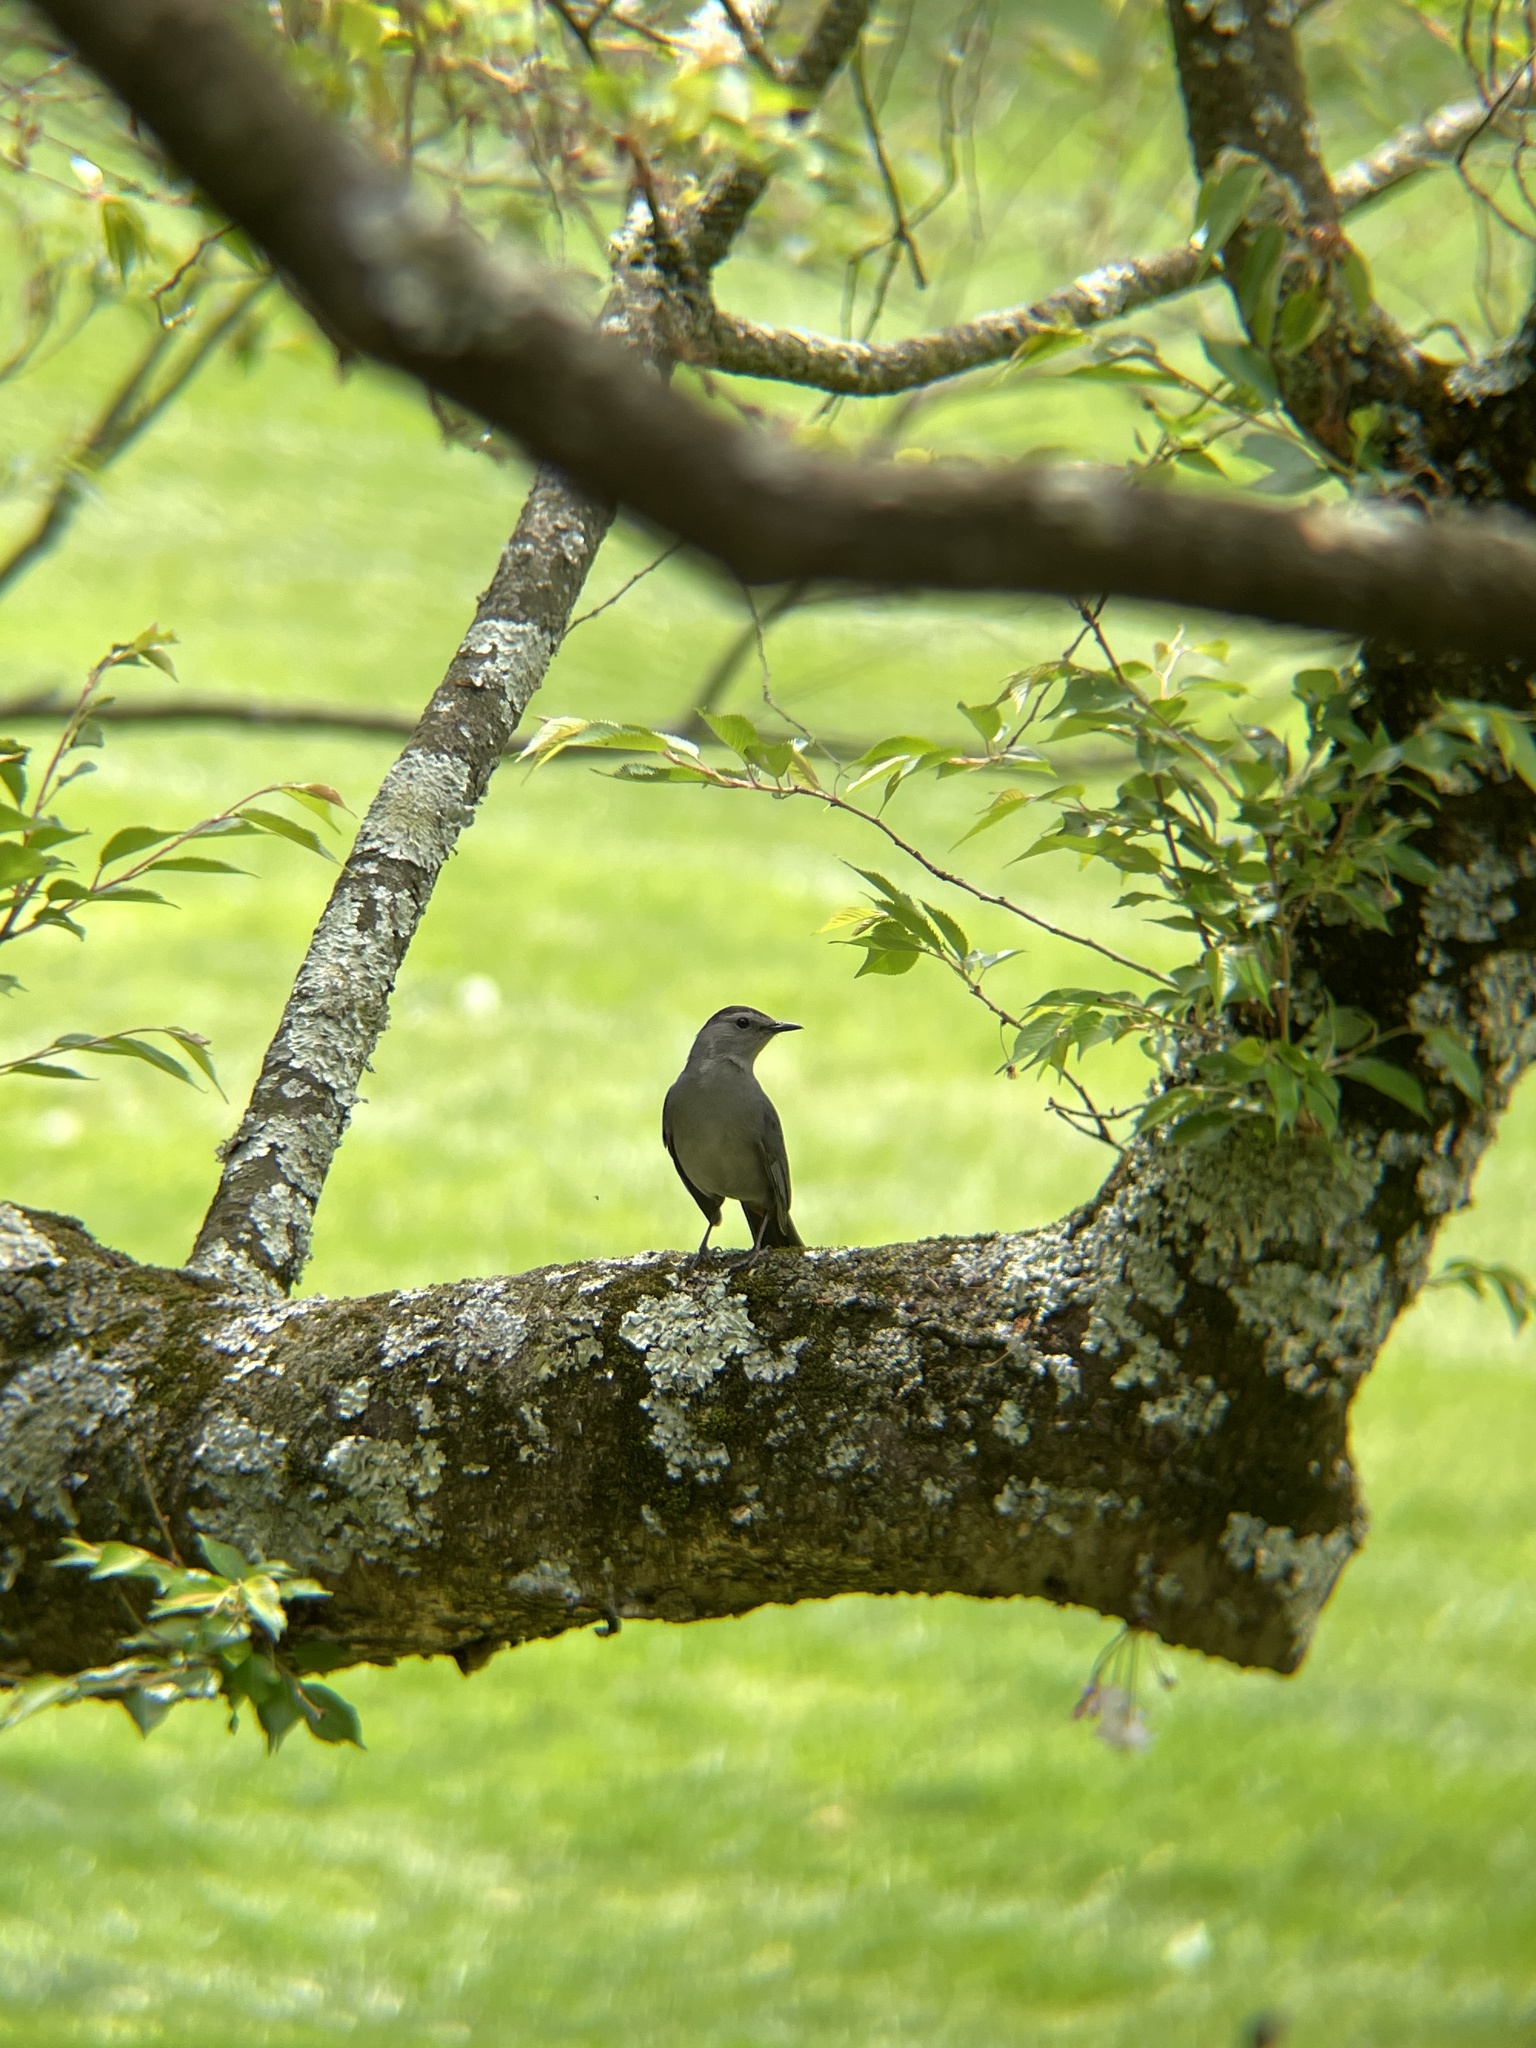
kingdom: Animalia
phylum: Chordata
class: Aves
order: Passeriformes
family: Mimidae
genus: Dumetella
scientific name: Dumetella carolinensis
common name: Gray catbird
